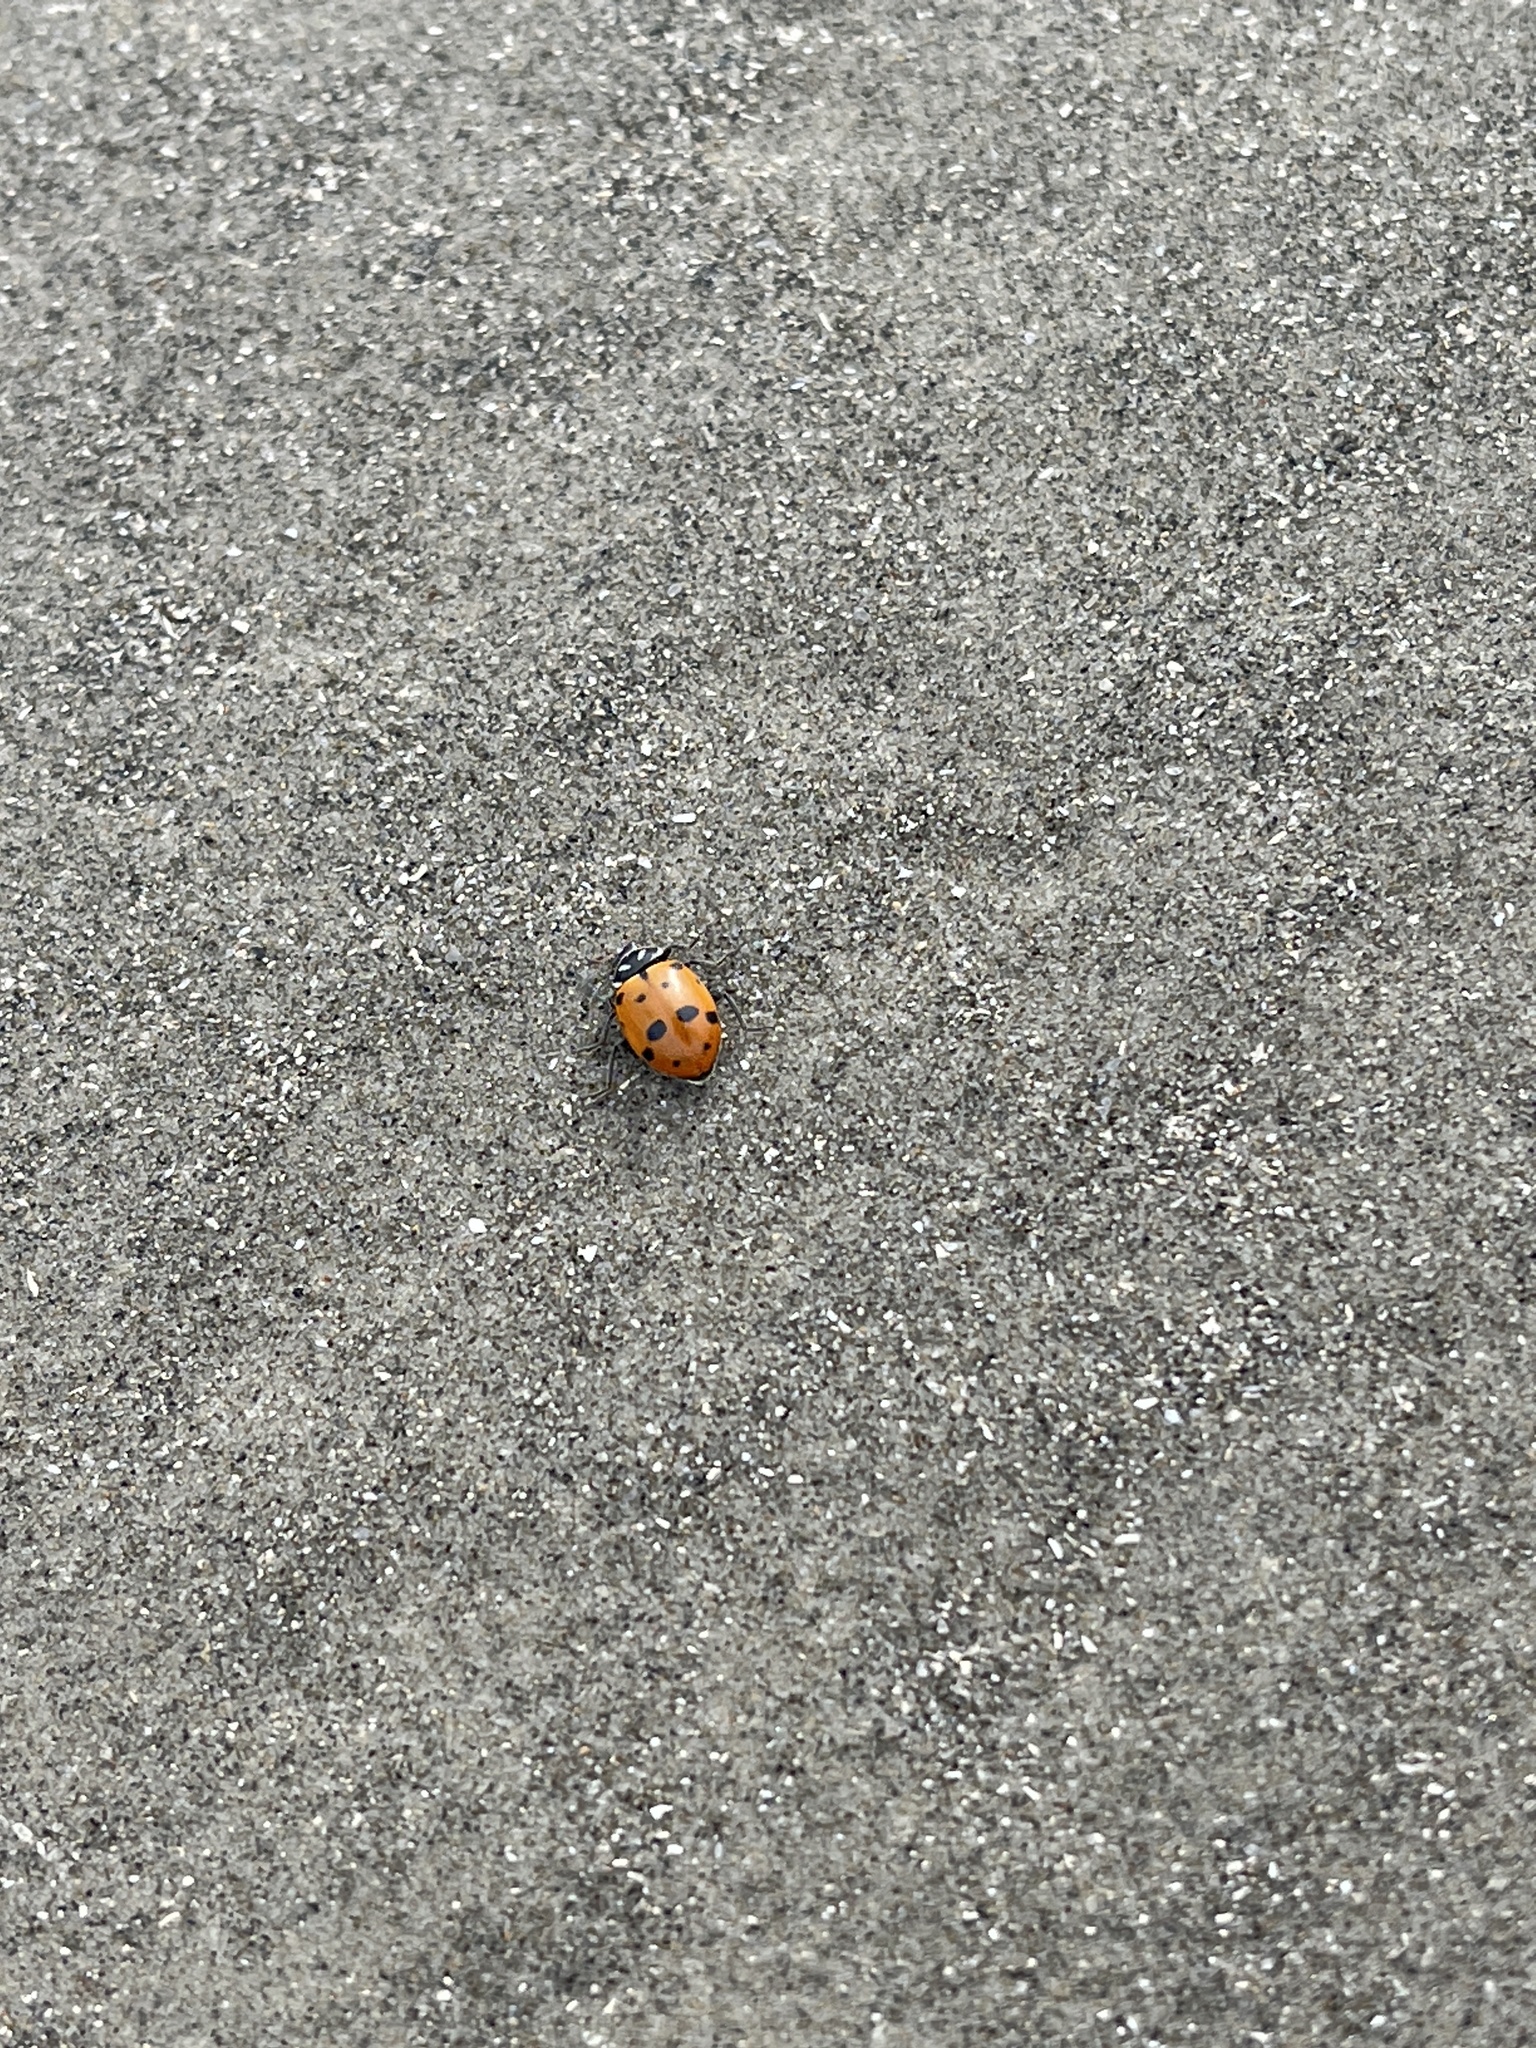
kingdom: Animalia
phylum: Arthropoda
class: Insecta
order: Coleoptera
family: Coccinellidae
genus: Hippodamia
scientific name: Hippodamia convergens
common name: Convergent lady beetle
